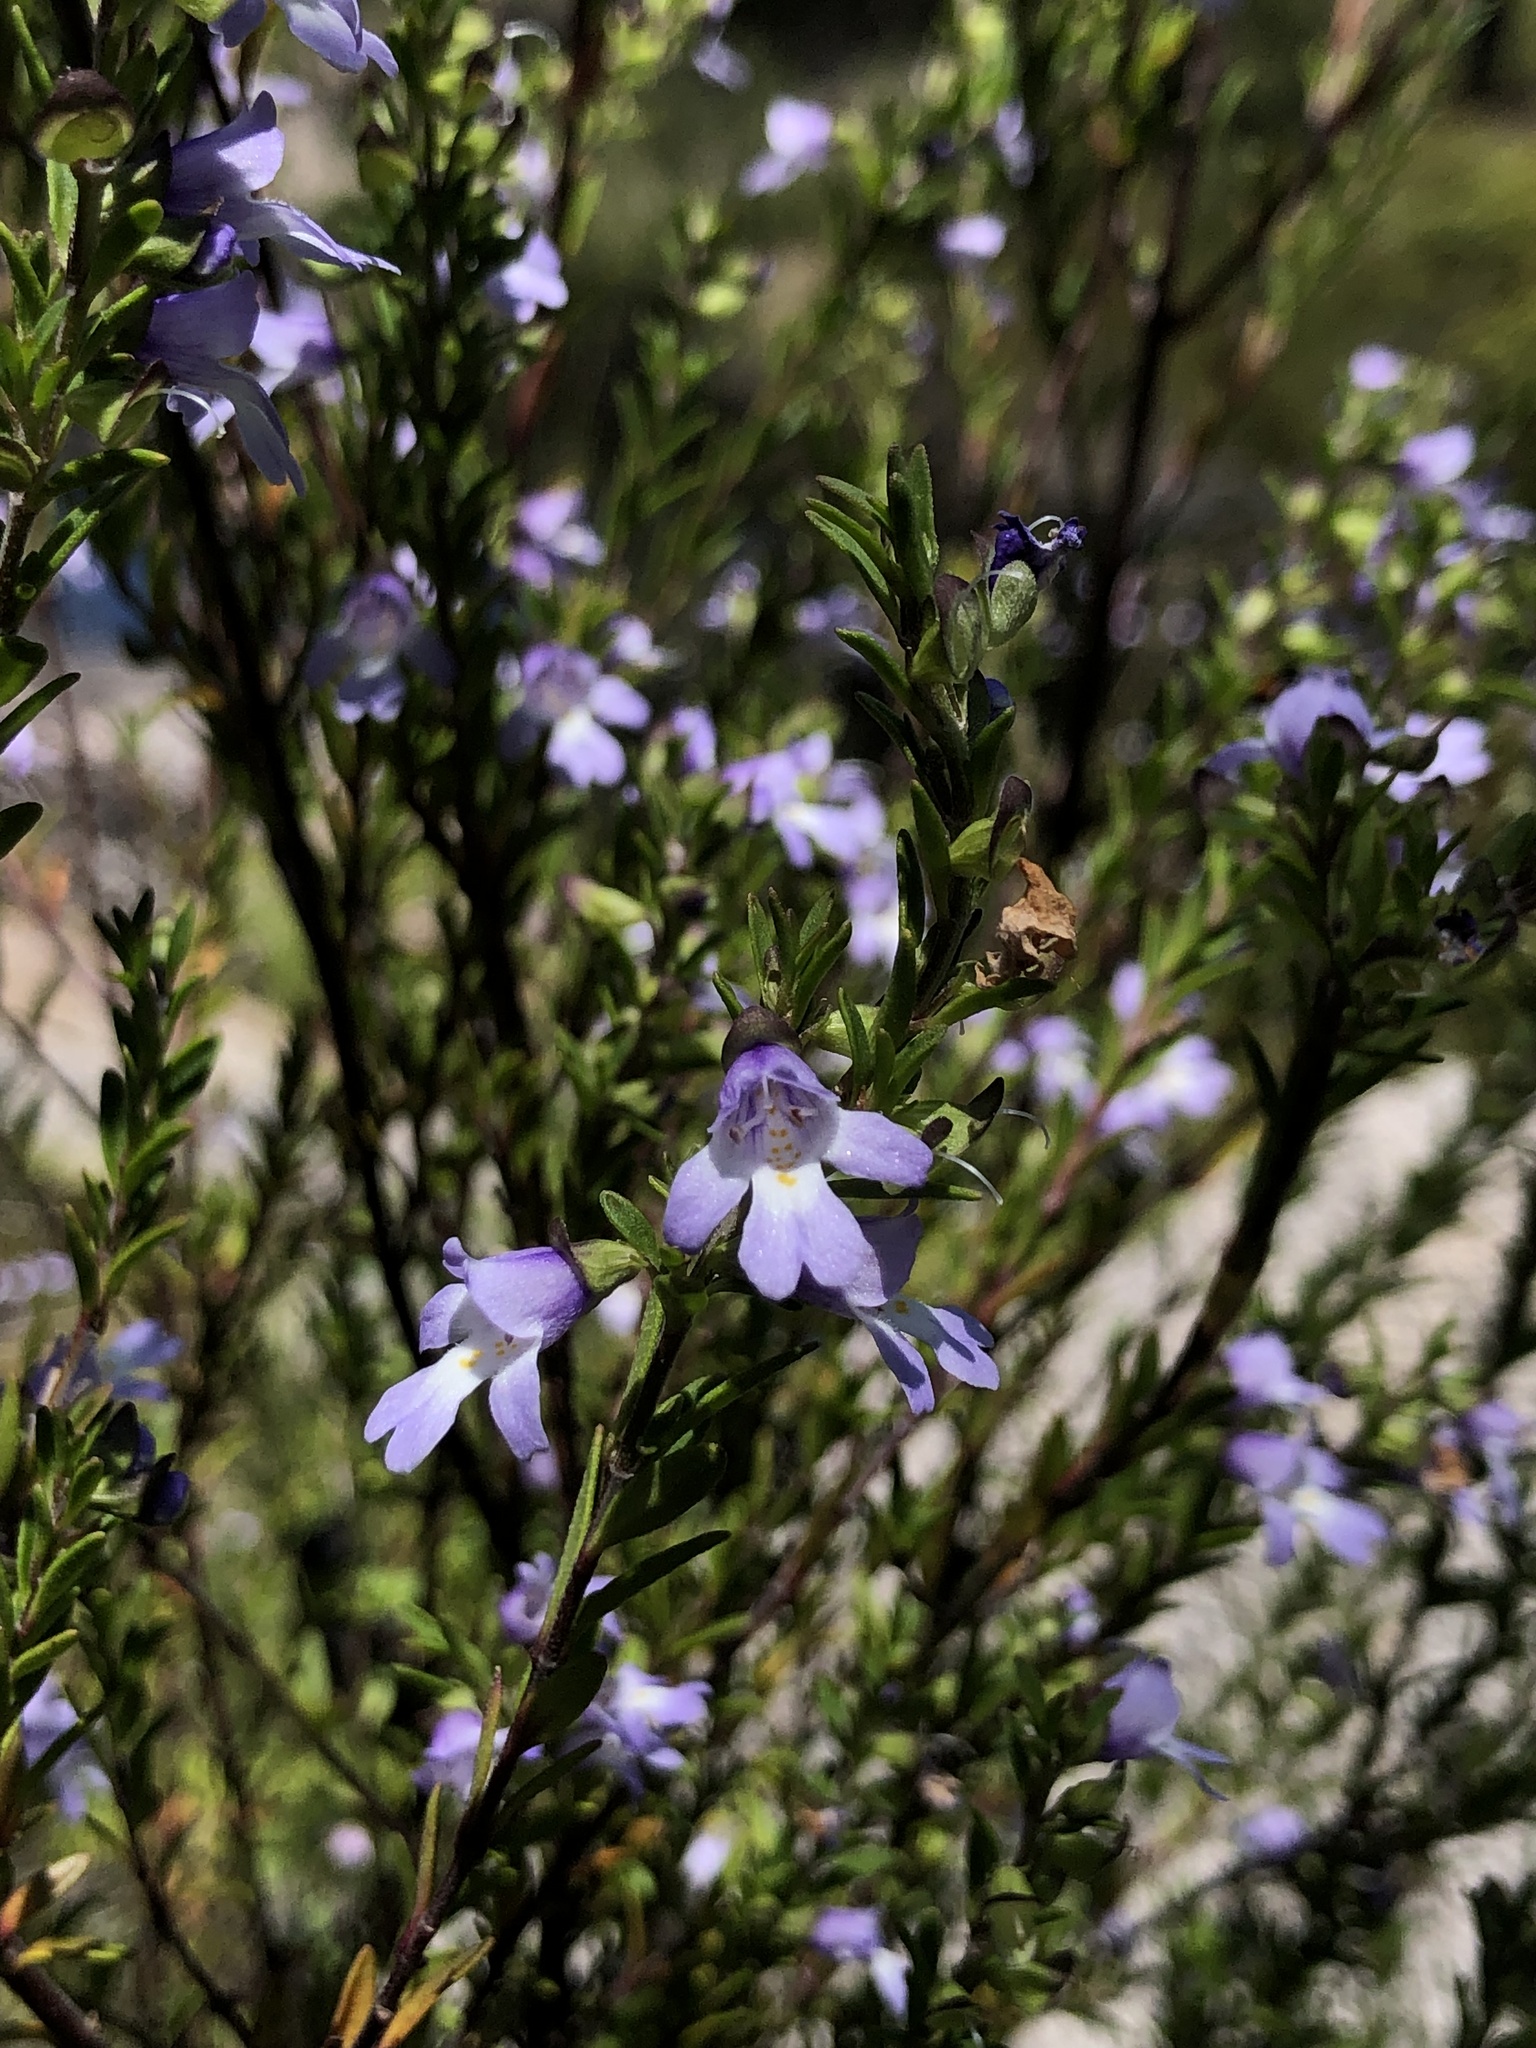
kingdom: Plantae
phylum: Tracheophyta
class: Magnoliopsida
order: Lamiales
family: Lamiaceae
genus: Prostanthera
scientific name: Prostanthera saxicola
